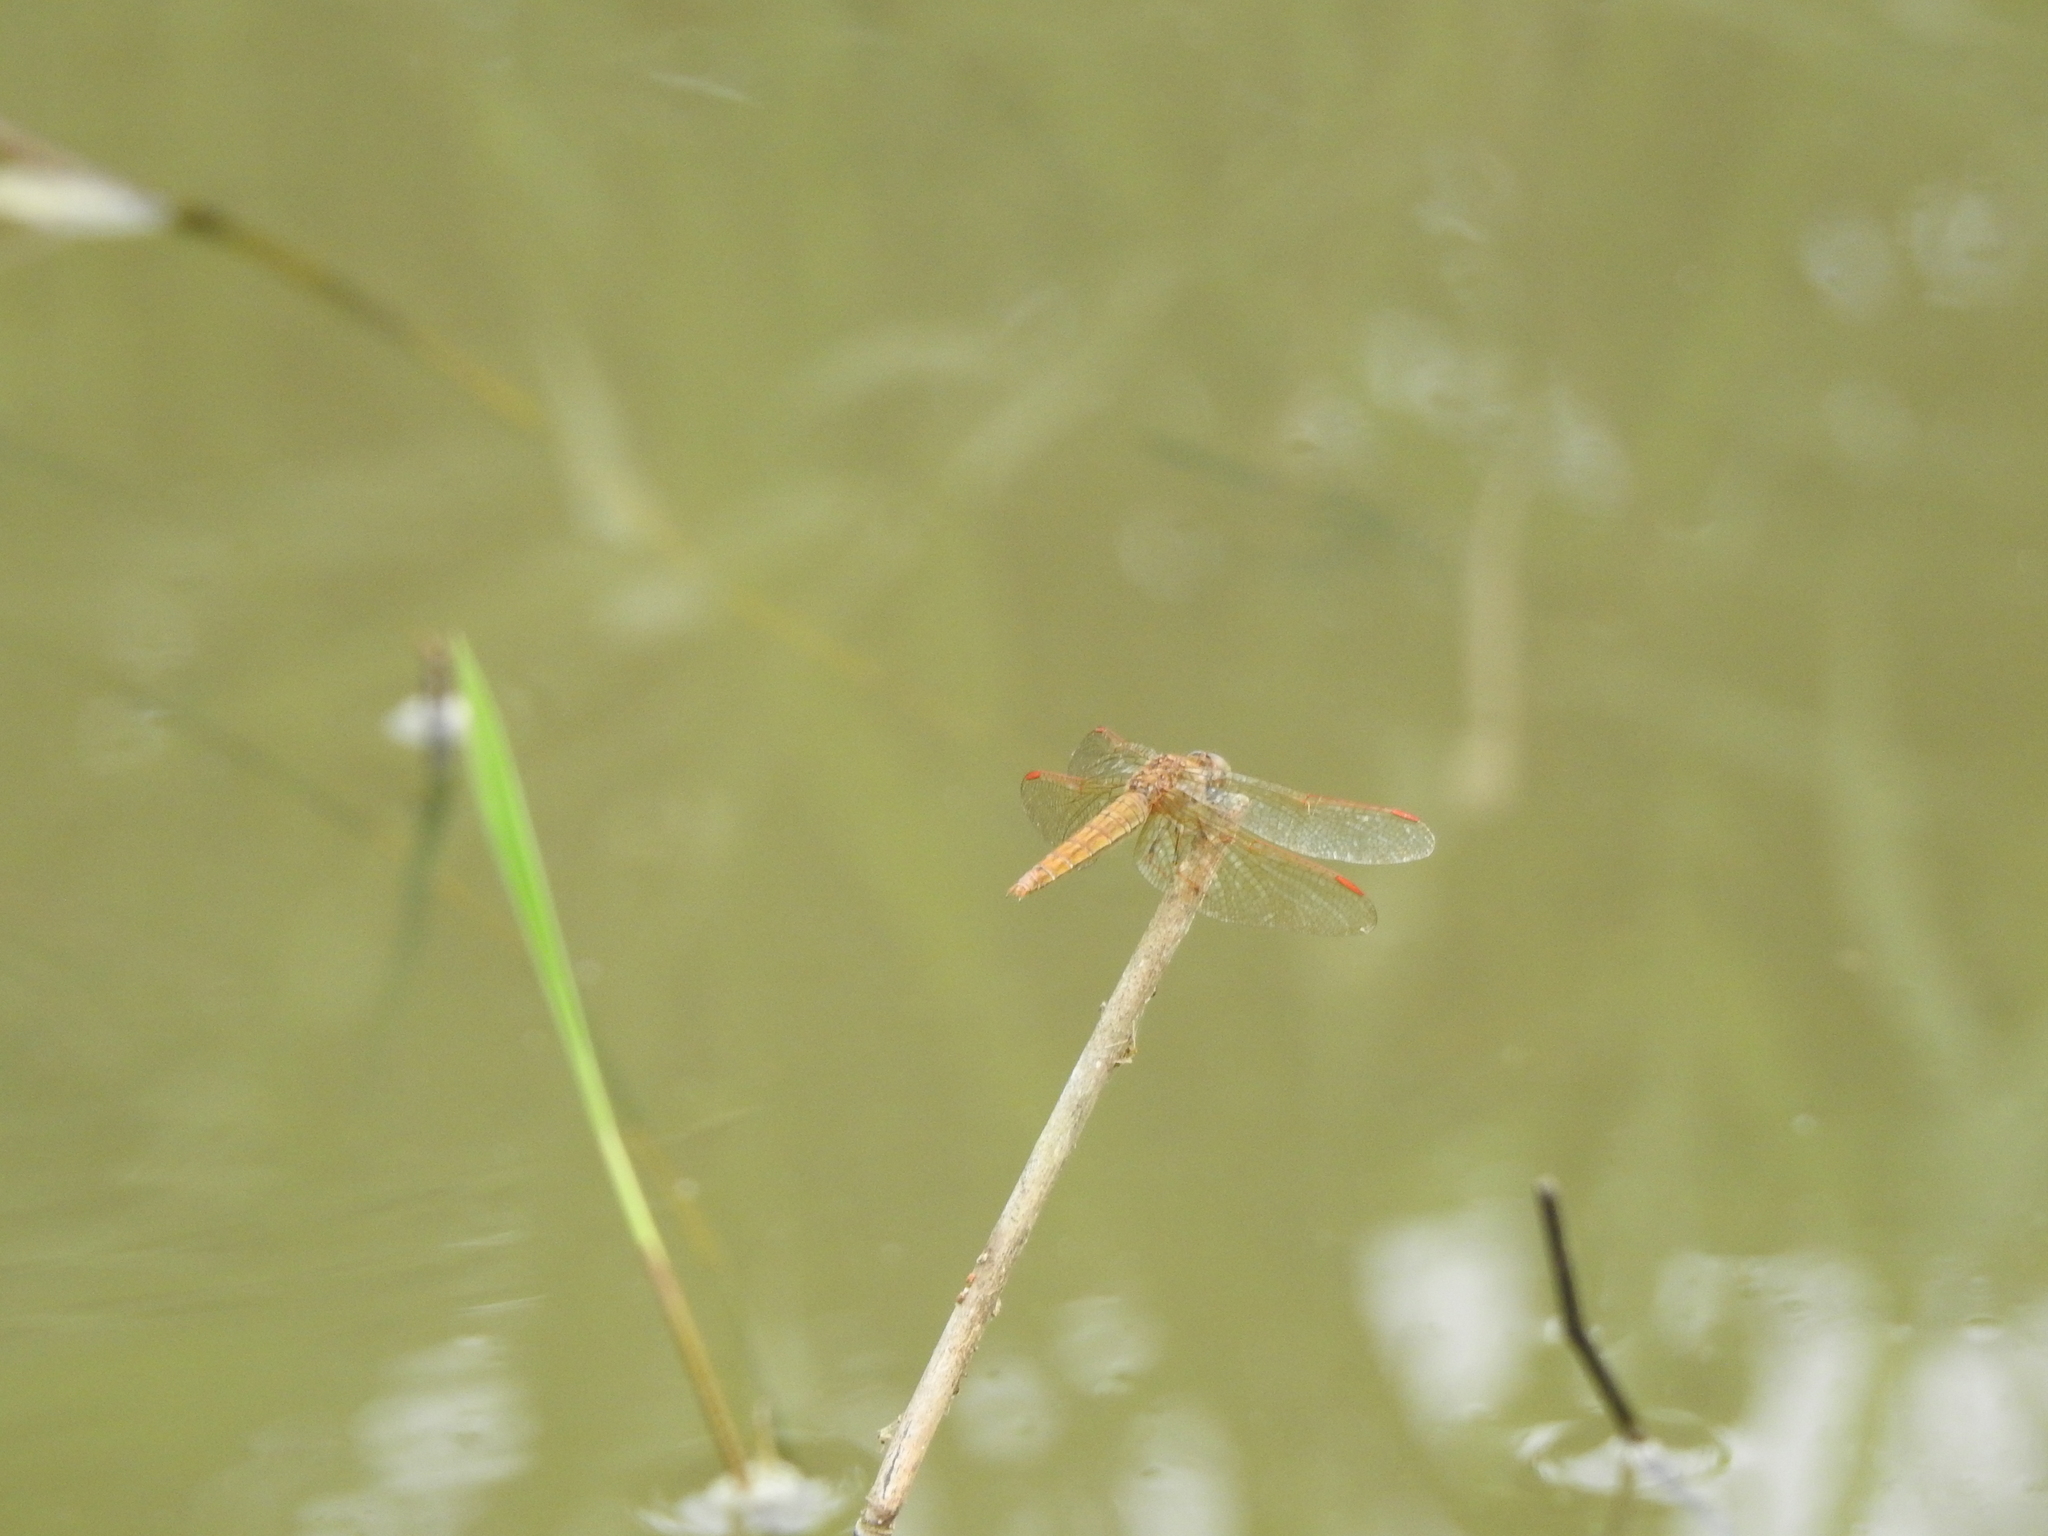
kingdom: Animalia
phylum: Arthropoda
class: Insecta
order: Odonata
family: Libellulidae
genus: Brachythemis
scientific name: Brachythemis contaminata
